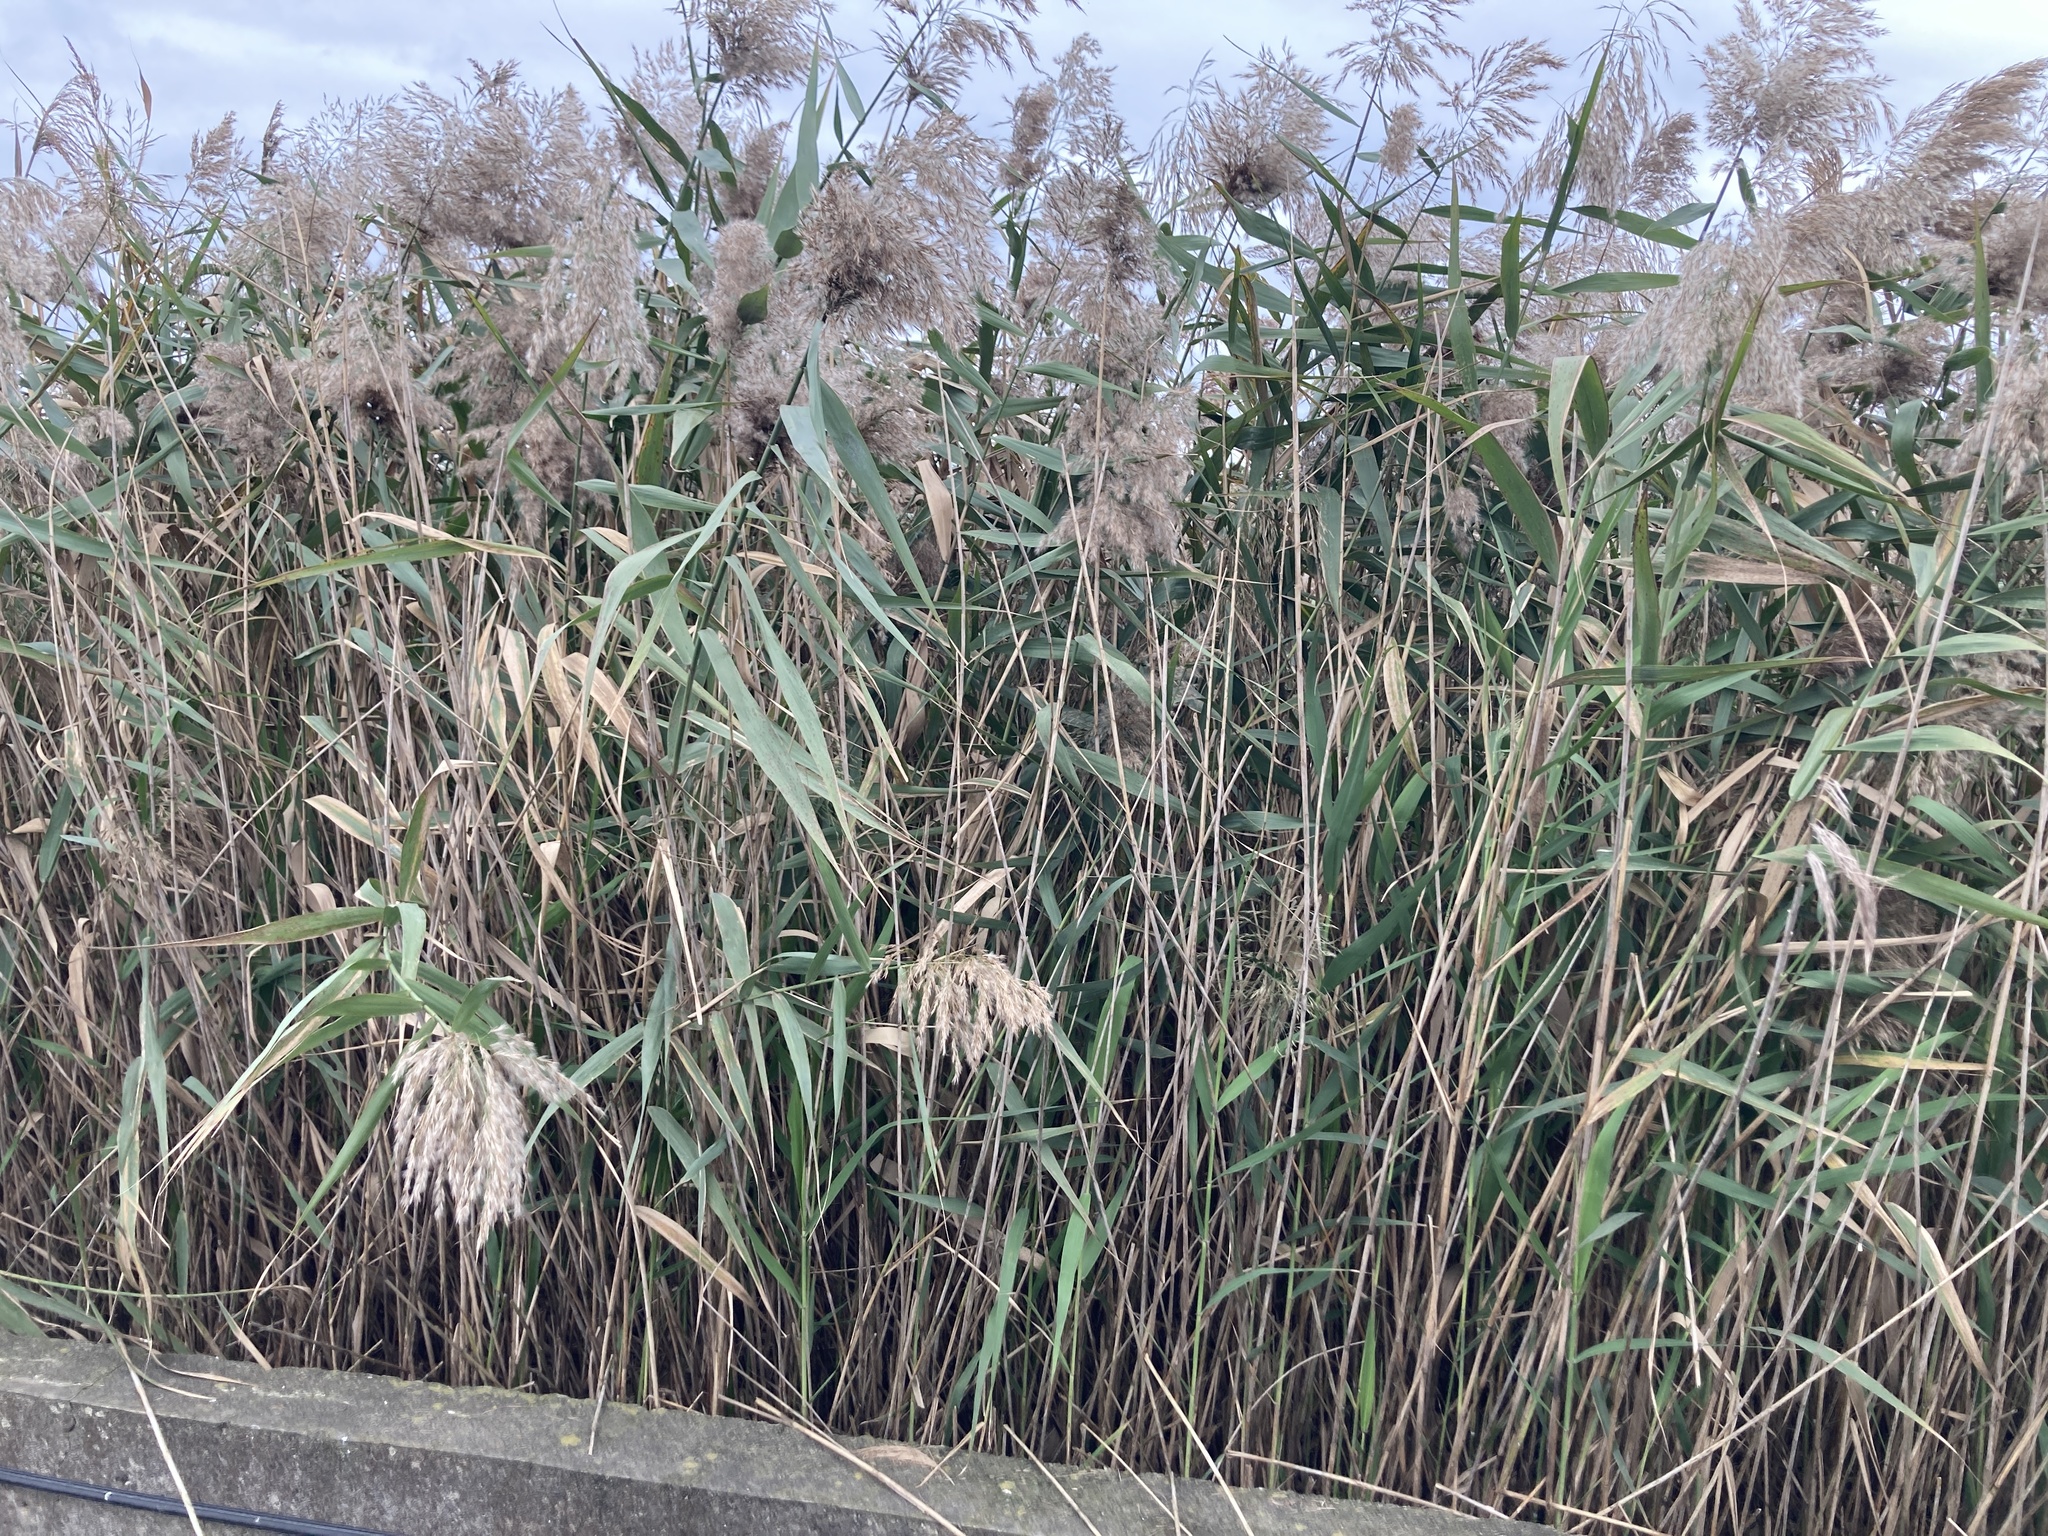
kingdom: Plantae
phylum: Tracheophyta
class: Liliopsida
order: Poales
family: Poaceae
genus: Phragmites
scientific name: Phragmites australis
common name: Common reed
